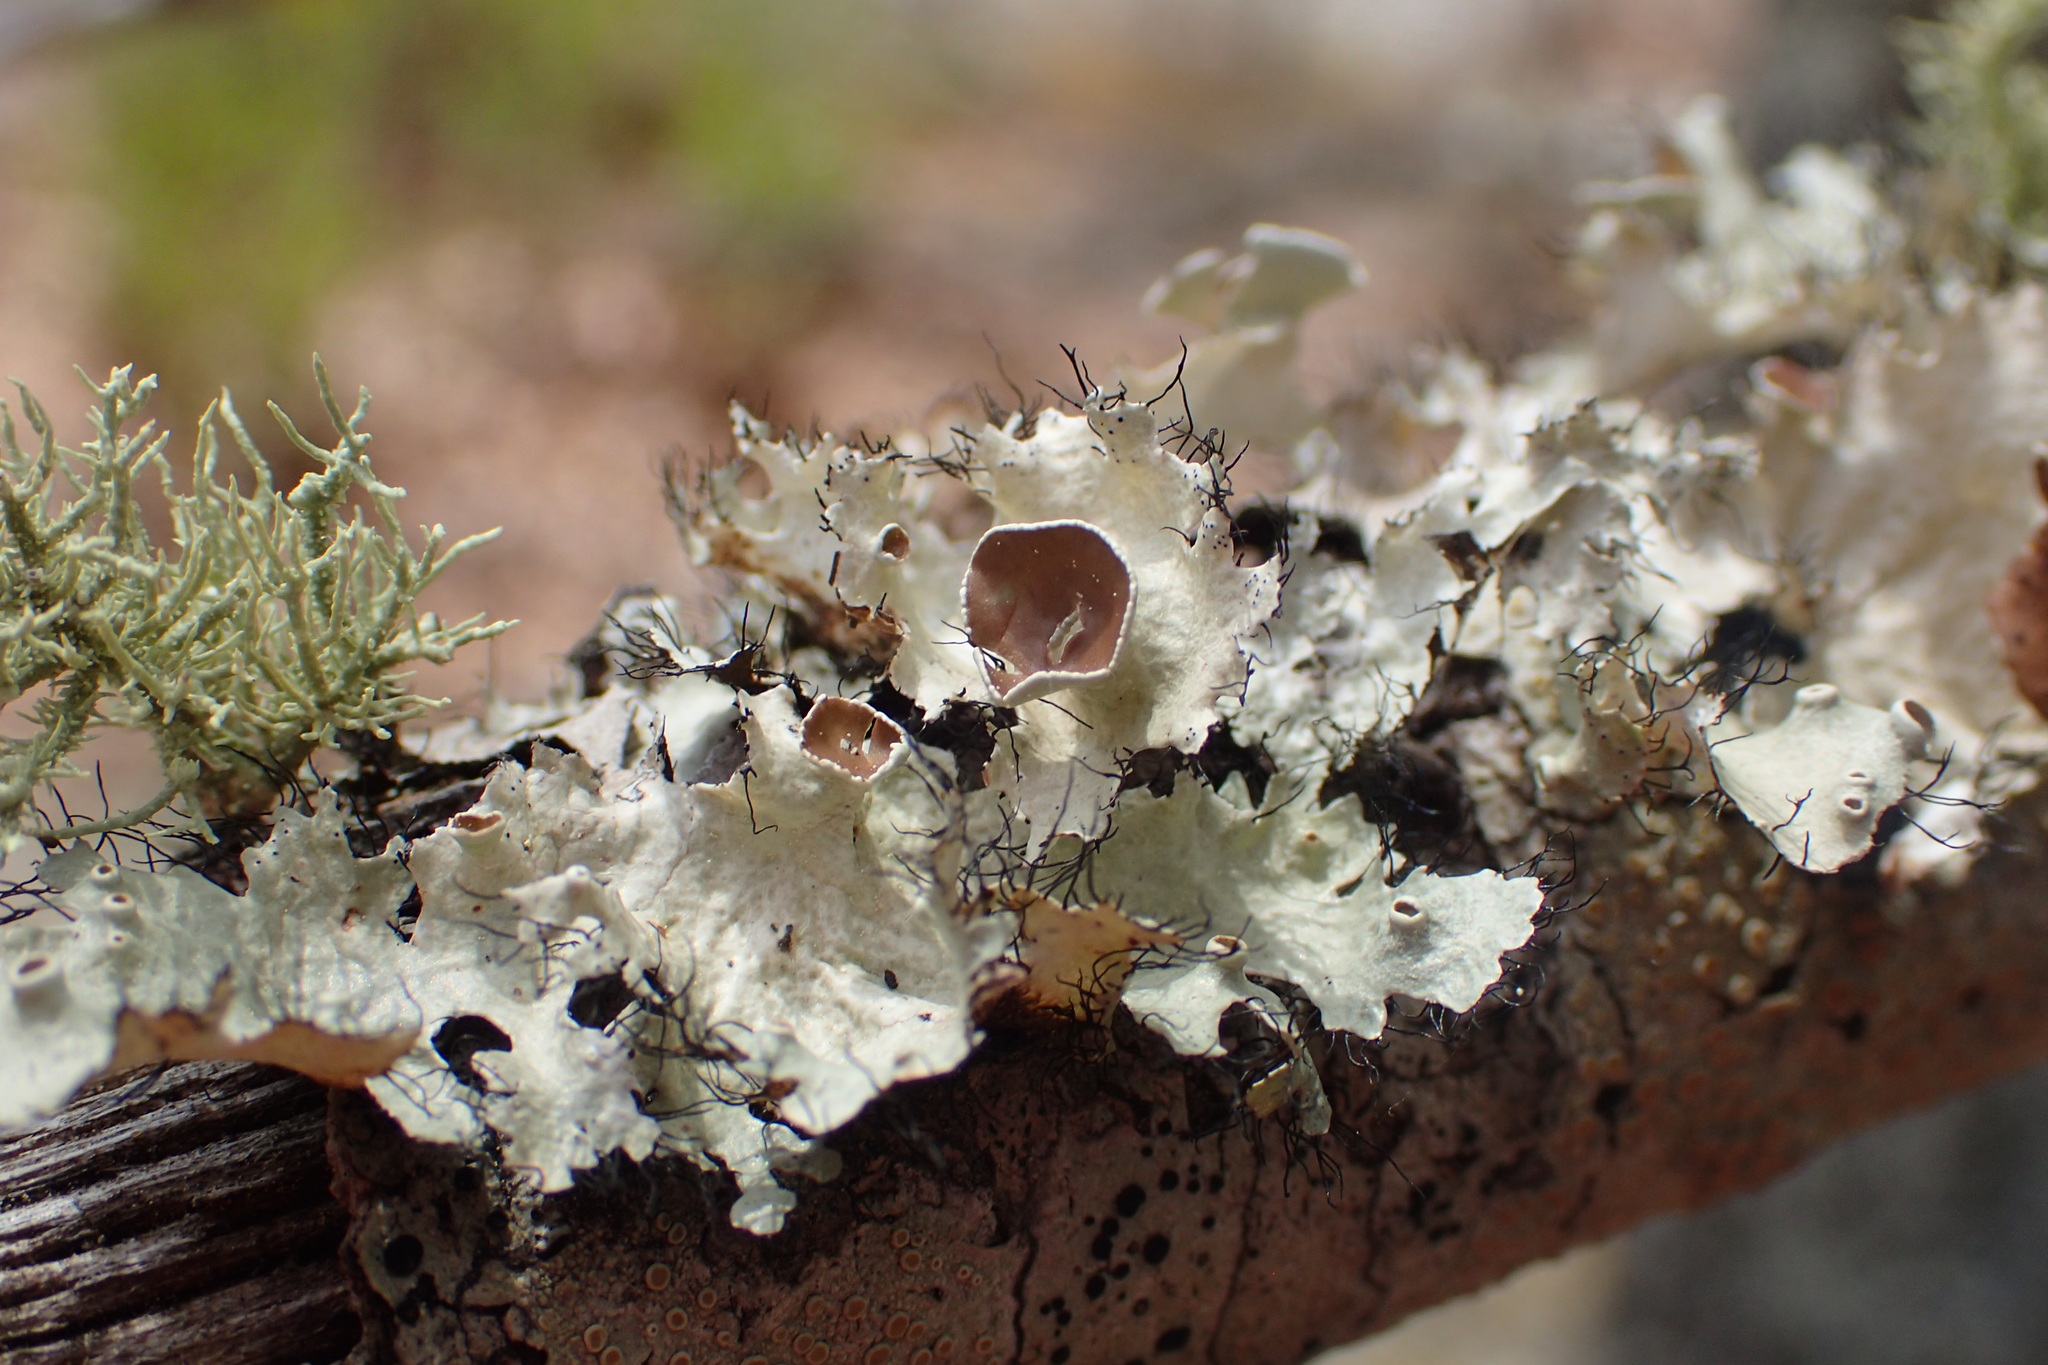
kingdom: Fungi
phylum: Ascomycota
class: Lecanoromycetes
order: Lecanorales
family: Parmeliaceae
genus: Parmotrema
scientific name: Parmotrema subrigidum
